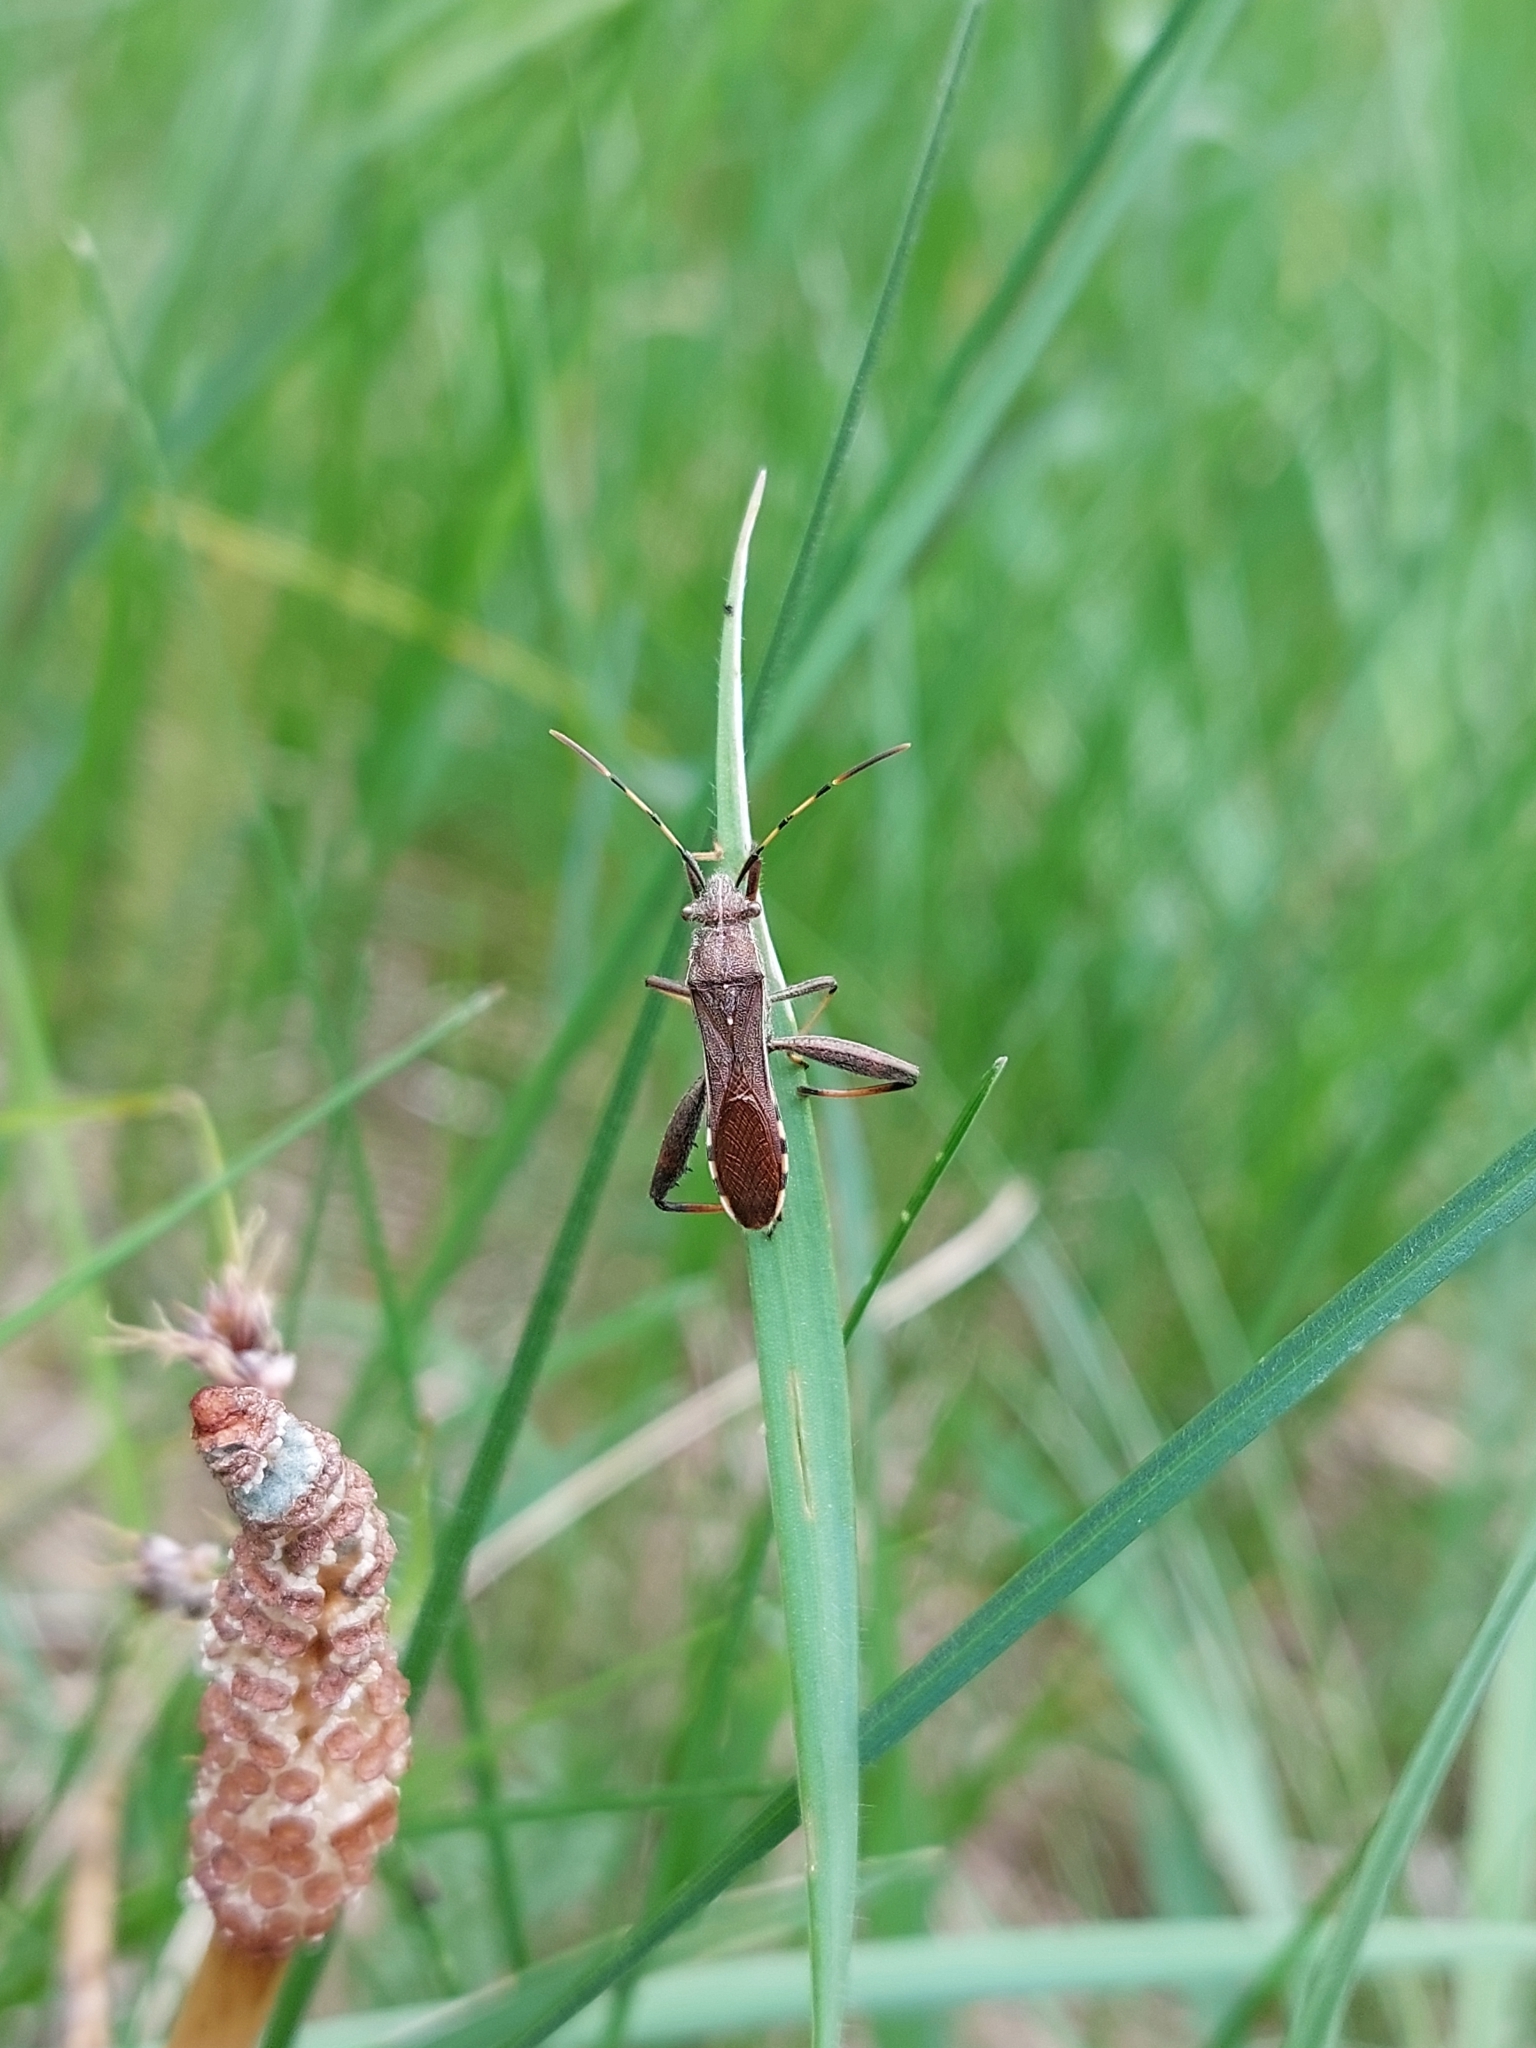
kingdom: Animalia
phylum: Arthropoda
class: Insecta
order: Hemiptera
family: Alydidae
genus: Camptopus
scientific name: Camptopus lateralis
